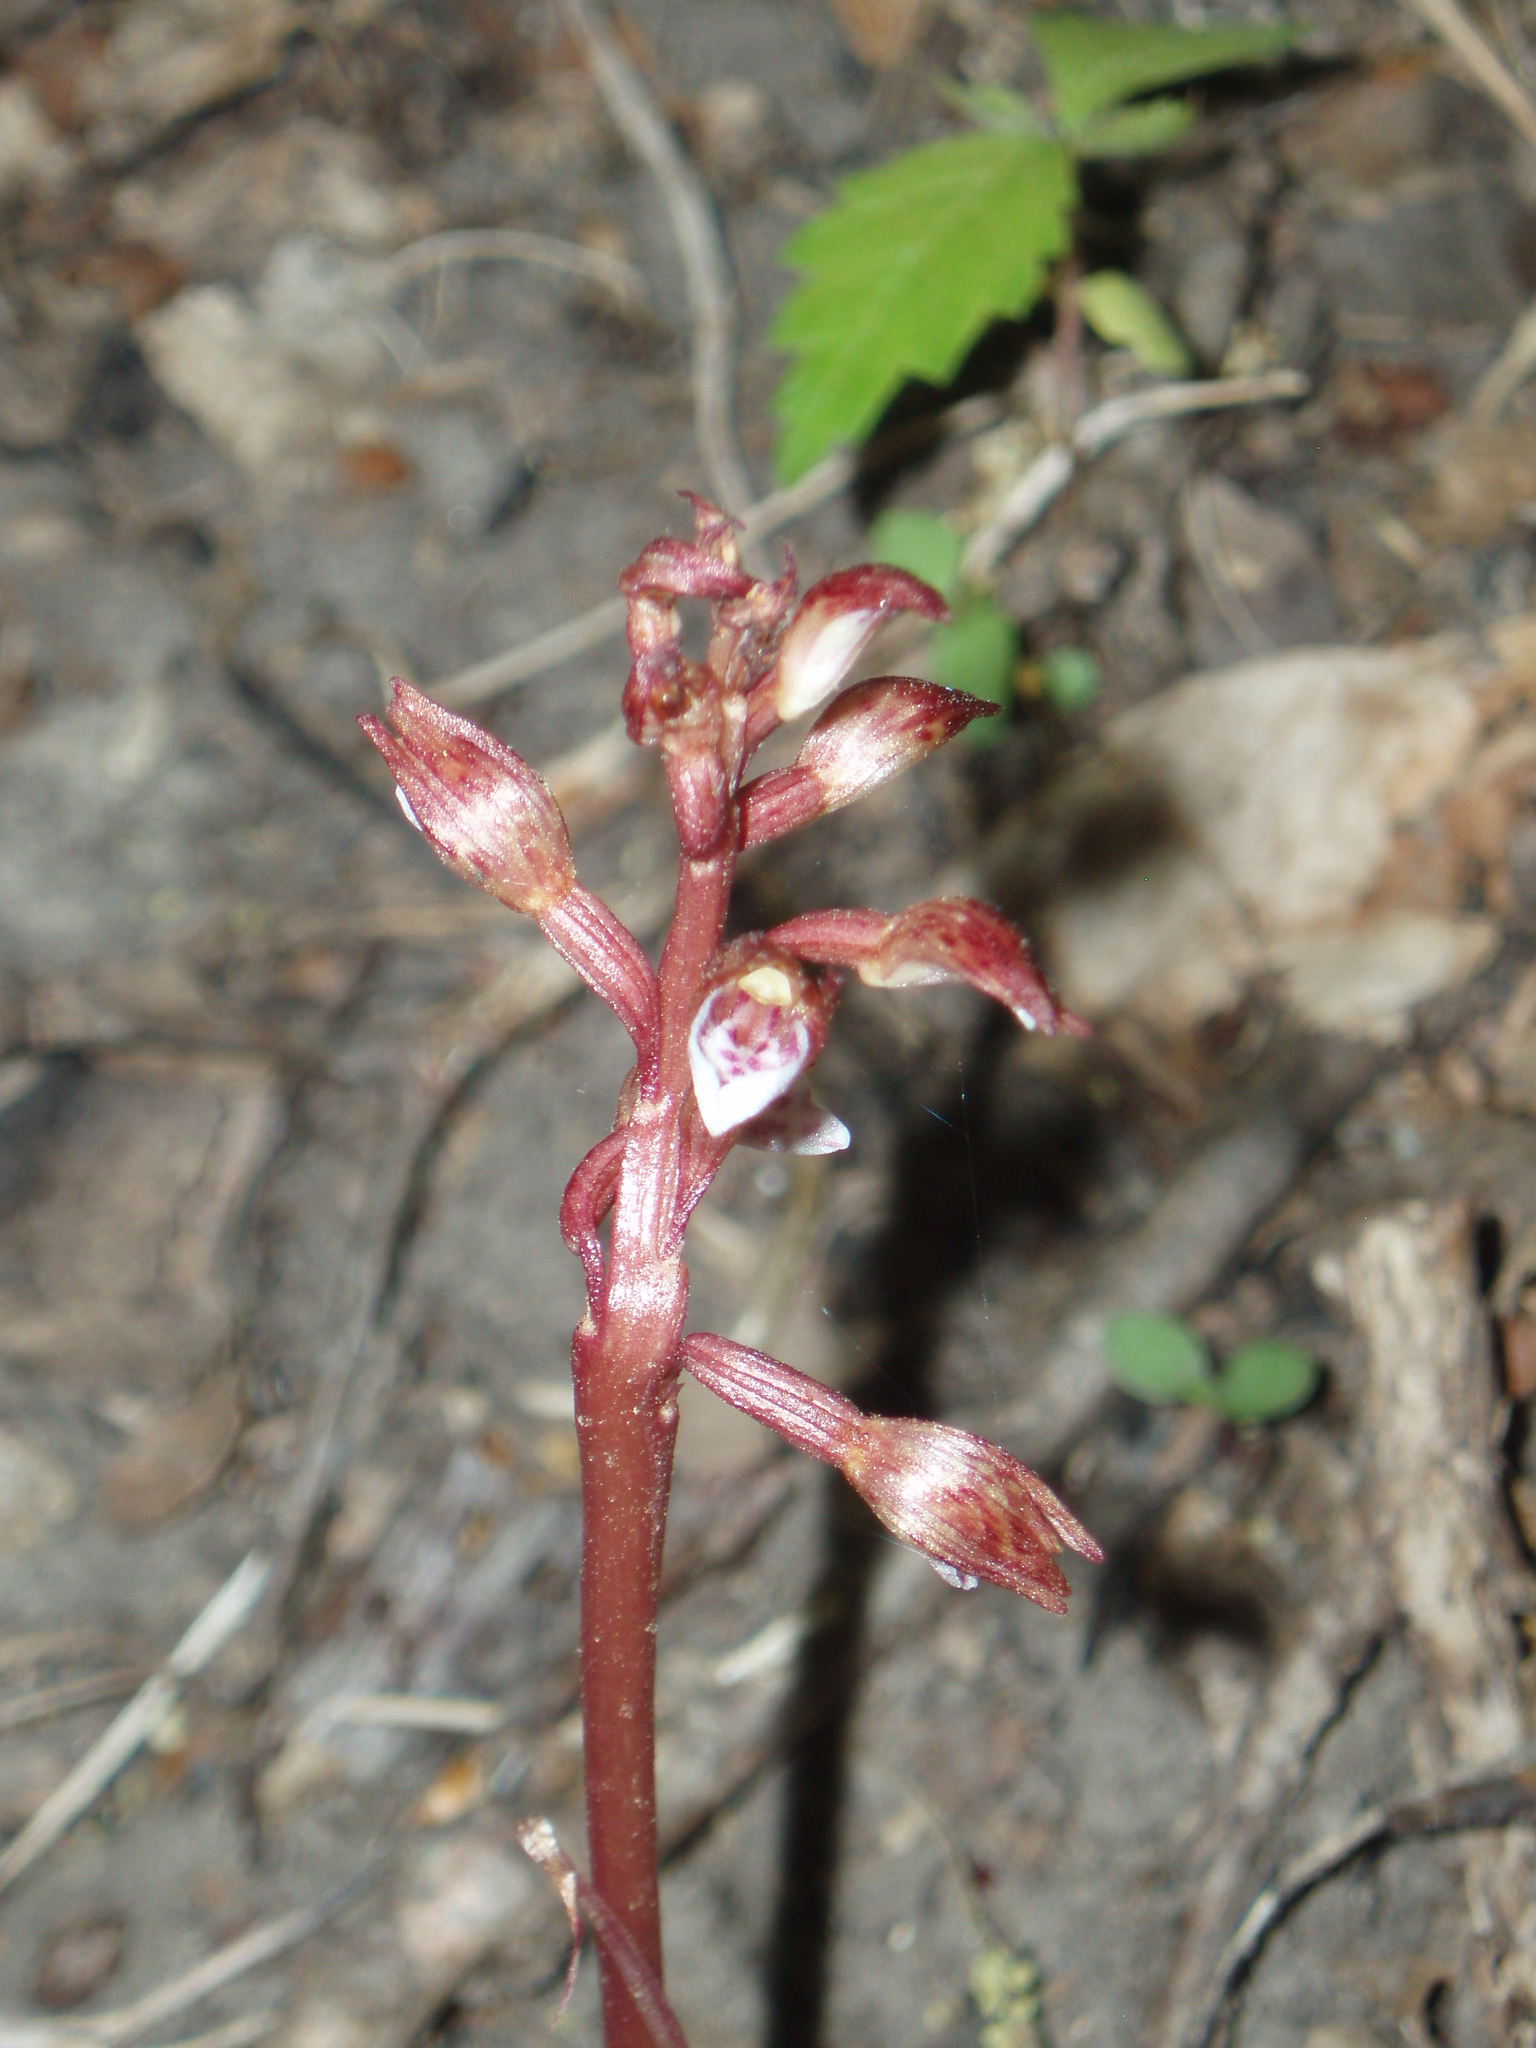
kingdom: Plantae
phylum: Tracheophyta
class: Liliopsida
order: Asparagales
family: Orchidaceae
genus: Corallorhiza
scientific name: Corallorhiza wisteriana
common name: Spring coralroot
